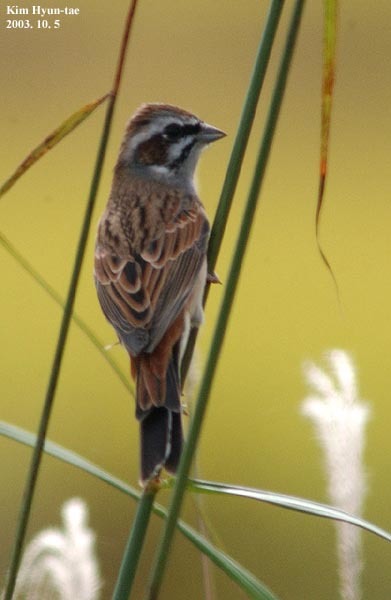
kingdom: Animalia
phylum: Chordata
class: Aves
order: Passeriformes
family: Emberizidae
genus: Emberiza
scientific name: Emberiza cioides
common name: Meadow bunting
